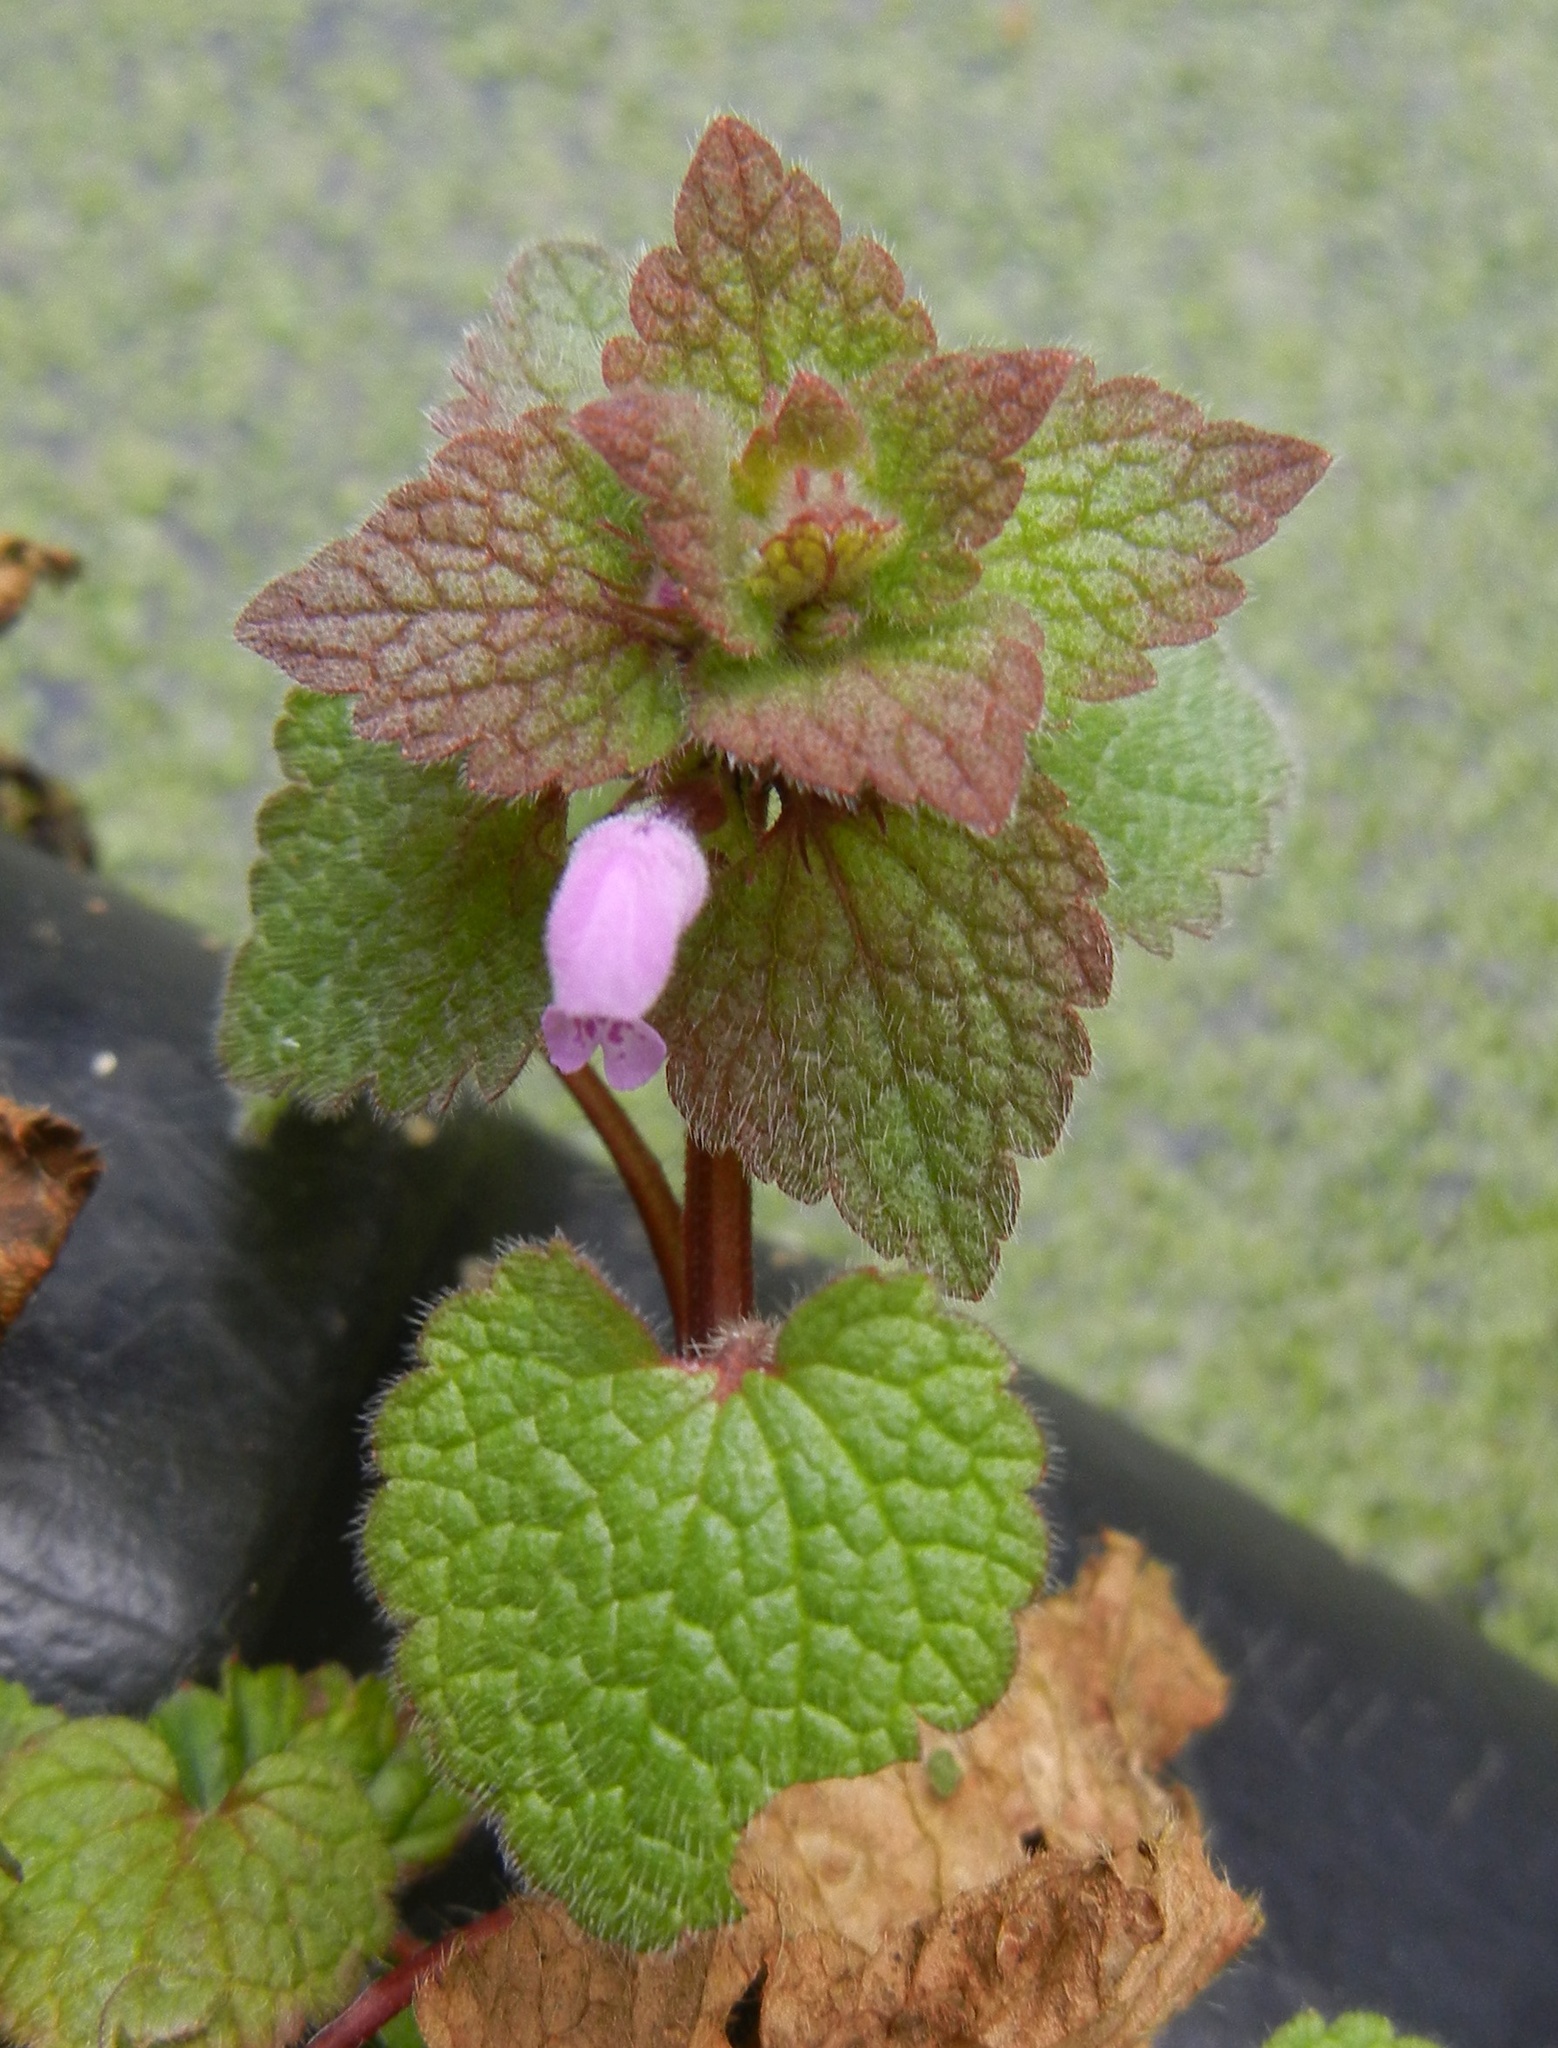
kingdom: Plantae
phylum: Tracheophyta
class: Magnoliopsida
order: Lamiales
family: Lamiaceae
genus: Lamium
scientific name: Lamium purpureum
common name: Red dead-nettle
